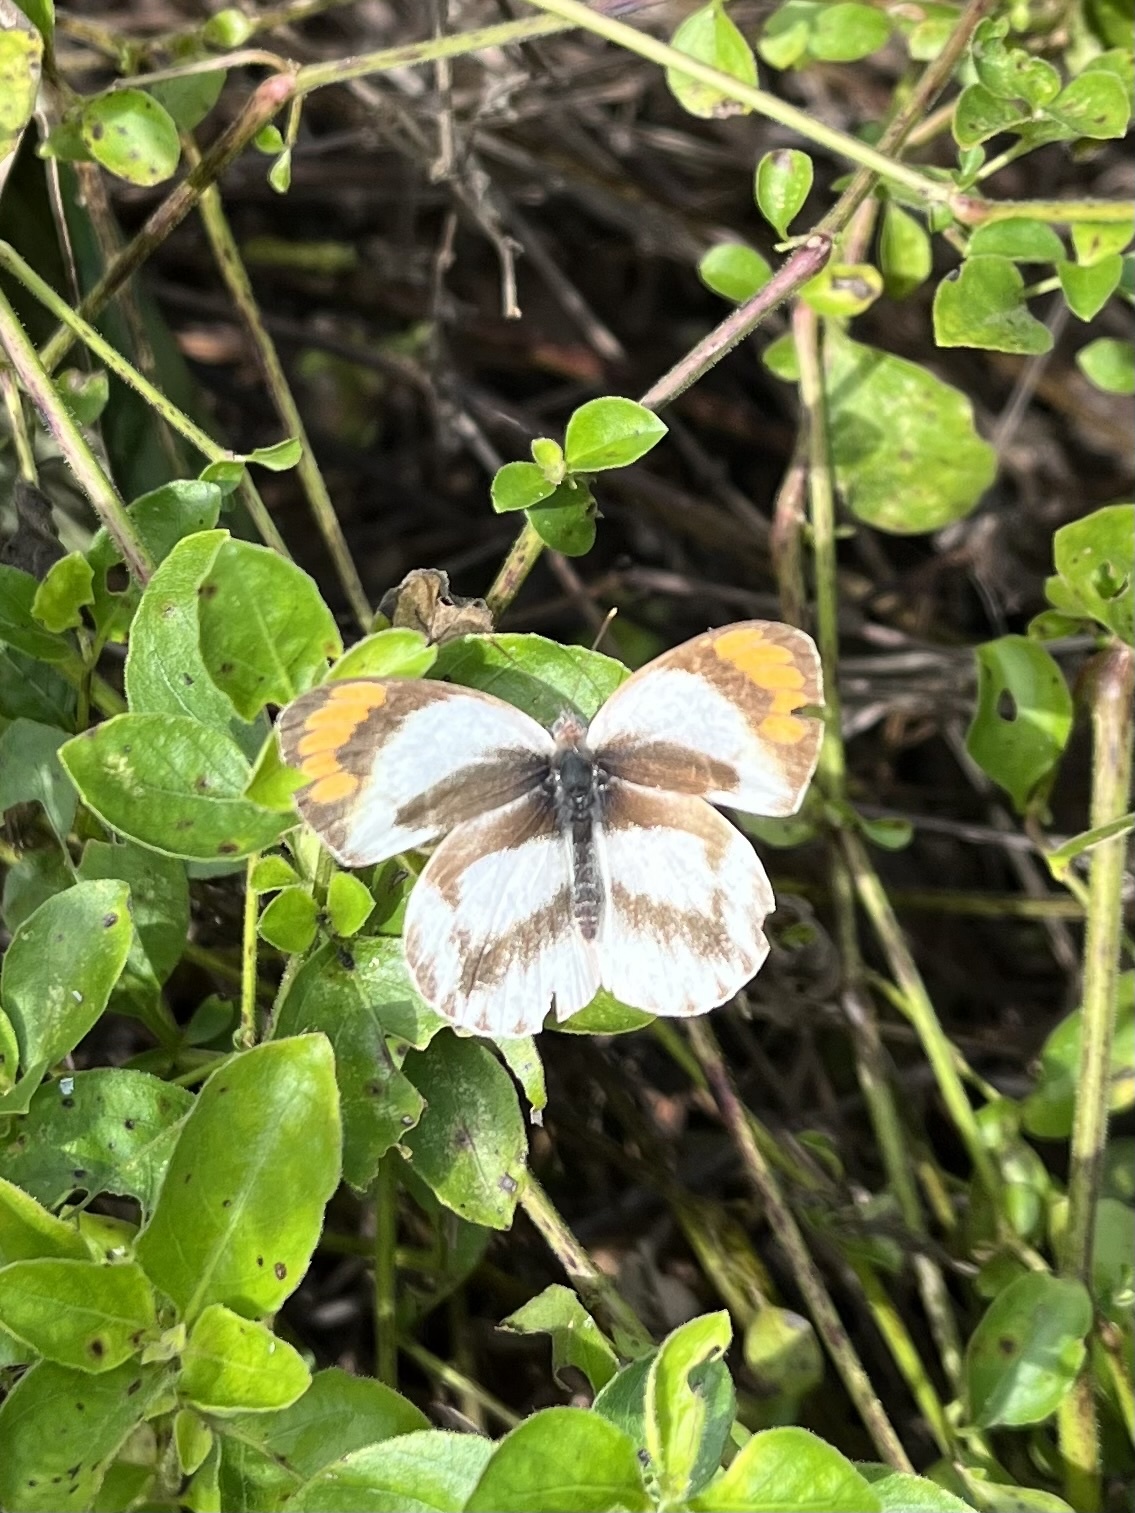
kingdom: Animalia
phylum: Arthropoda
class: Insecta
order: Lepidoptera
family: Pieridae
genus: Colotis
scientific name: Colotis euippe
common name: Round-winged orange tip
